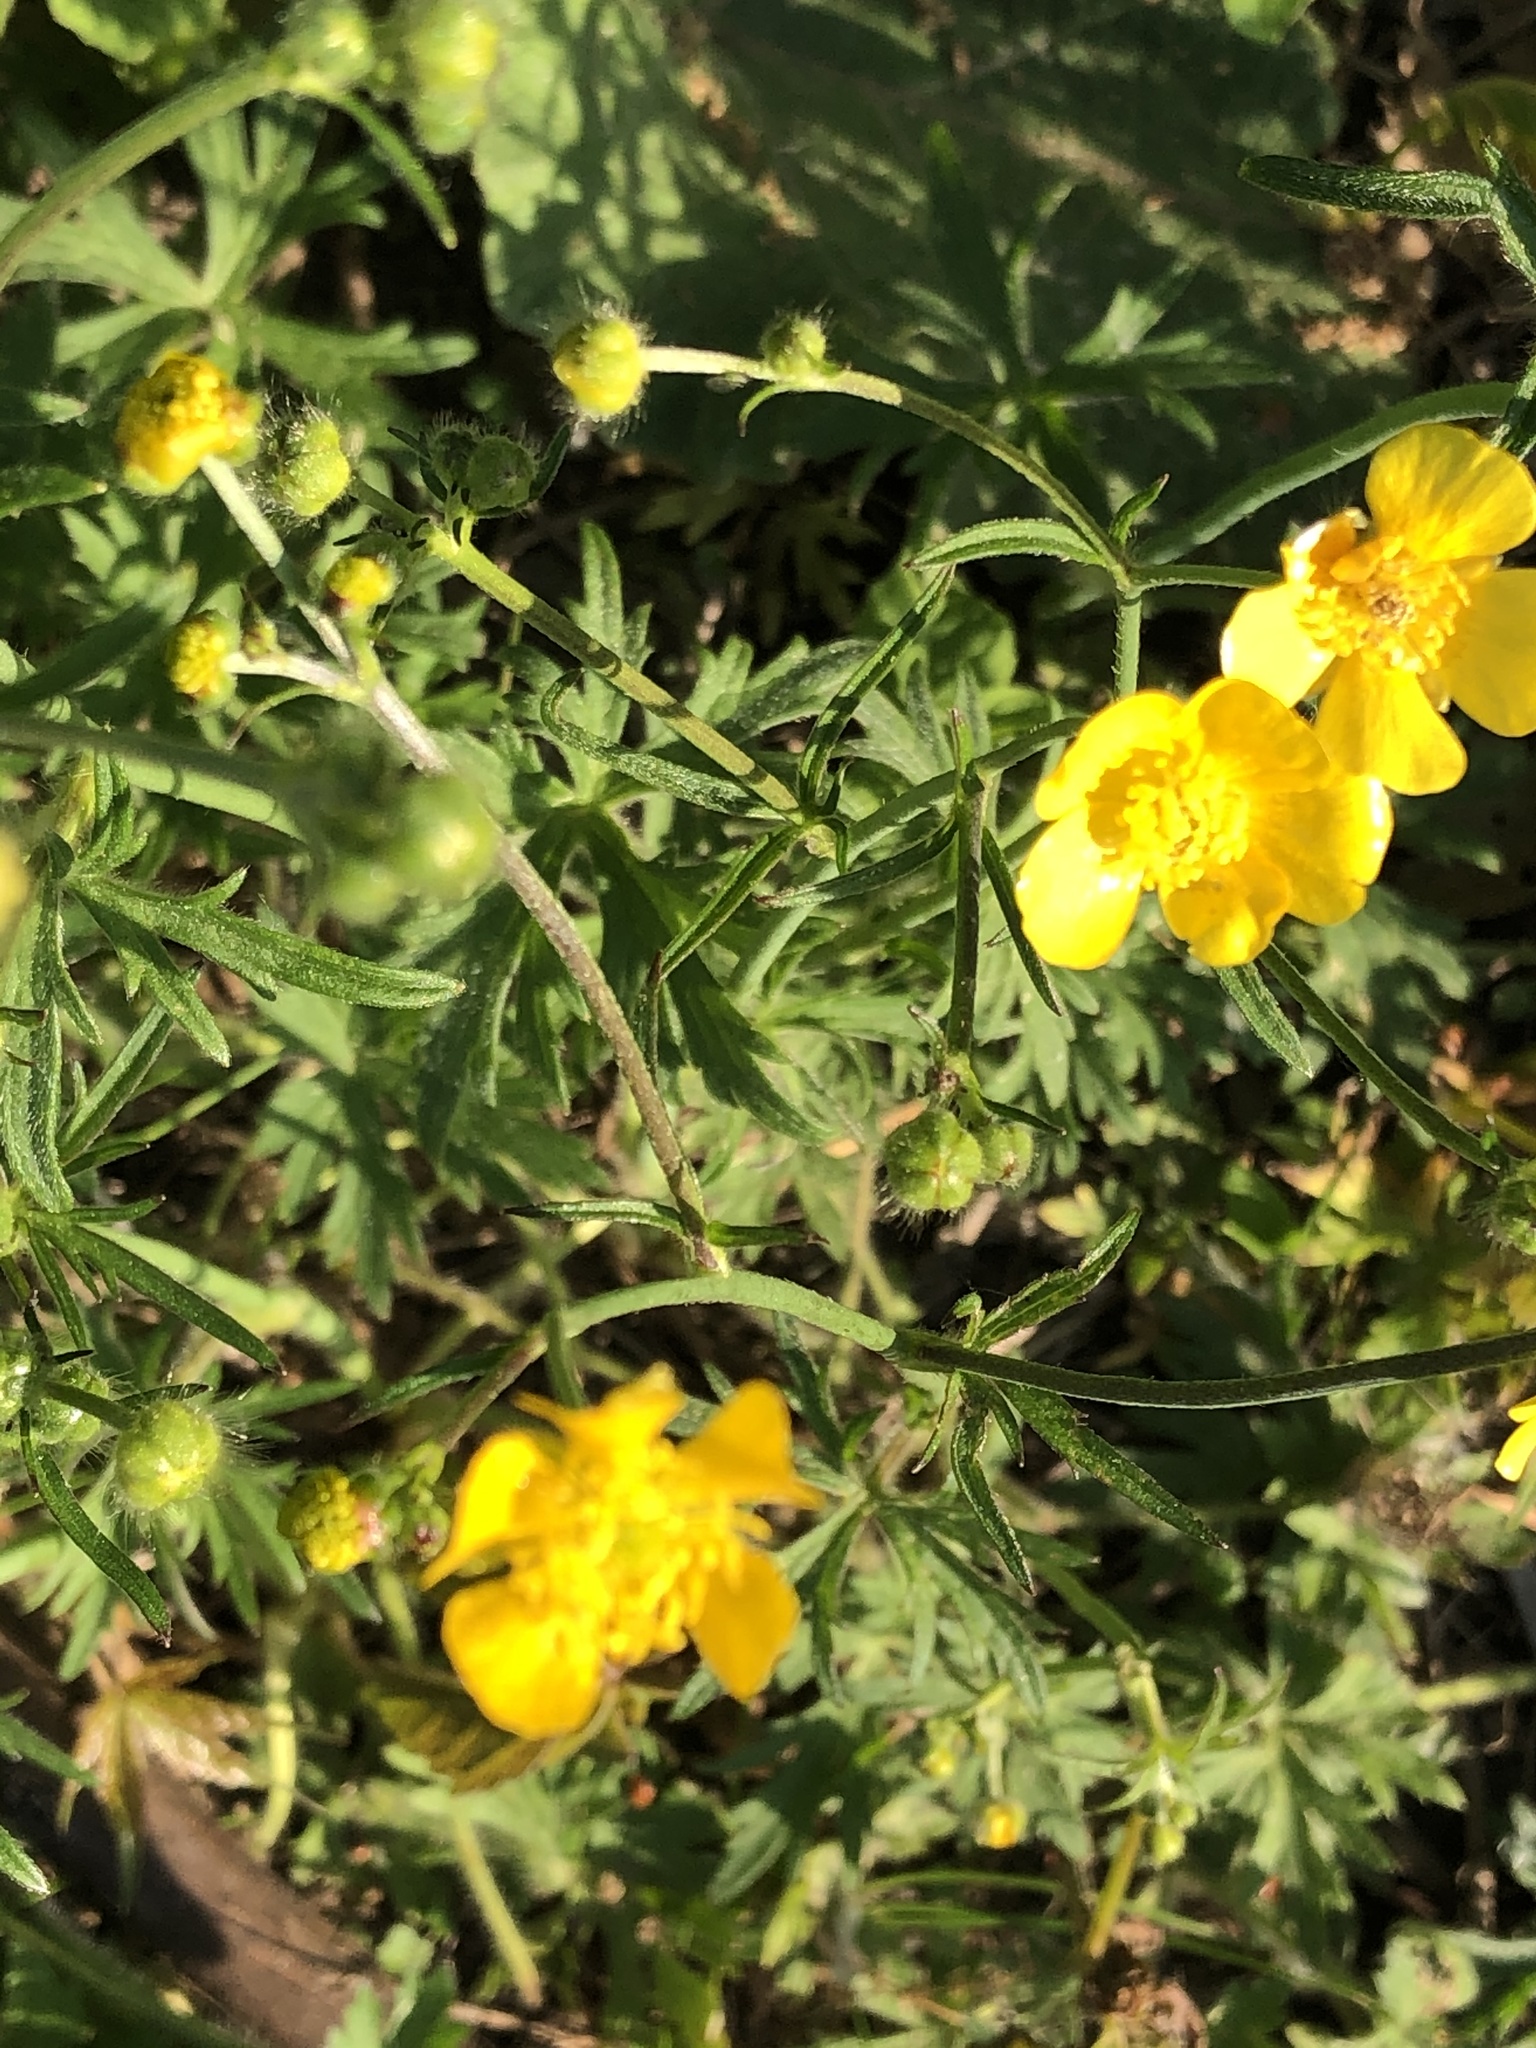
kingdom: Plantae
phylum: Tracheophyta
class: Magnoliopsida
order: Ranunculales
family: Ranunculaceae
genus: Ranunculus
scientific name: Ranunculus acris
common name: Meadow buttercup
